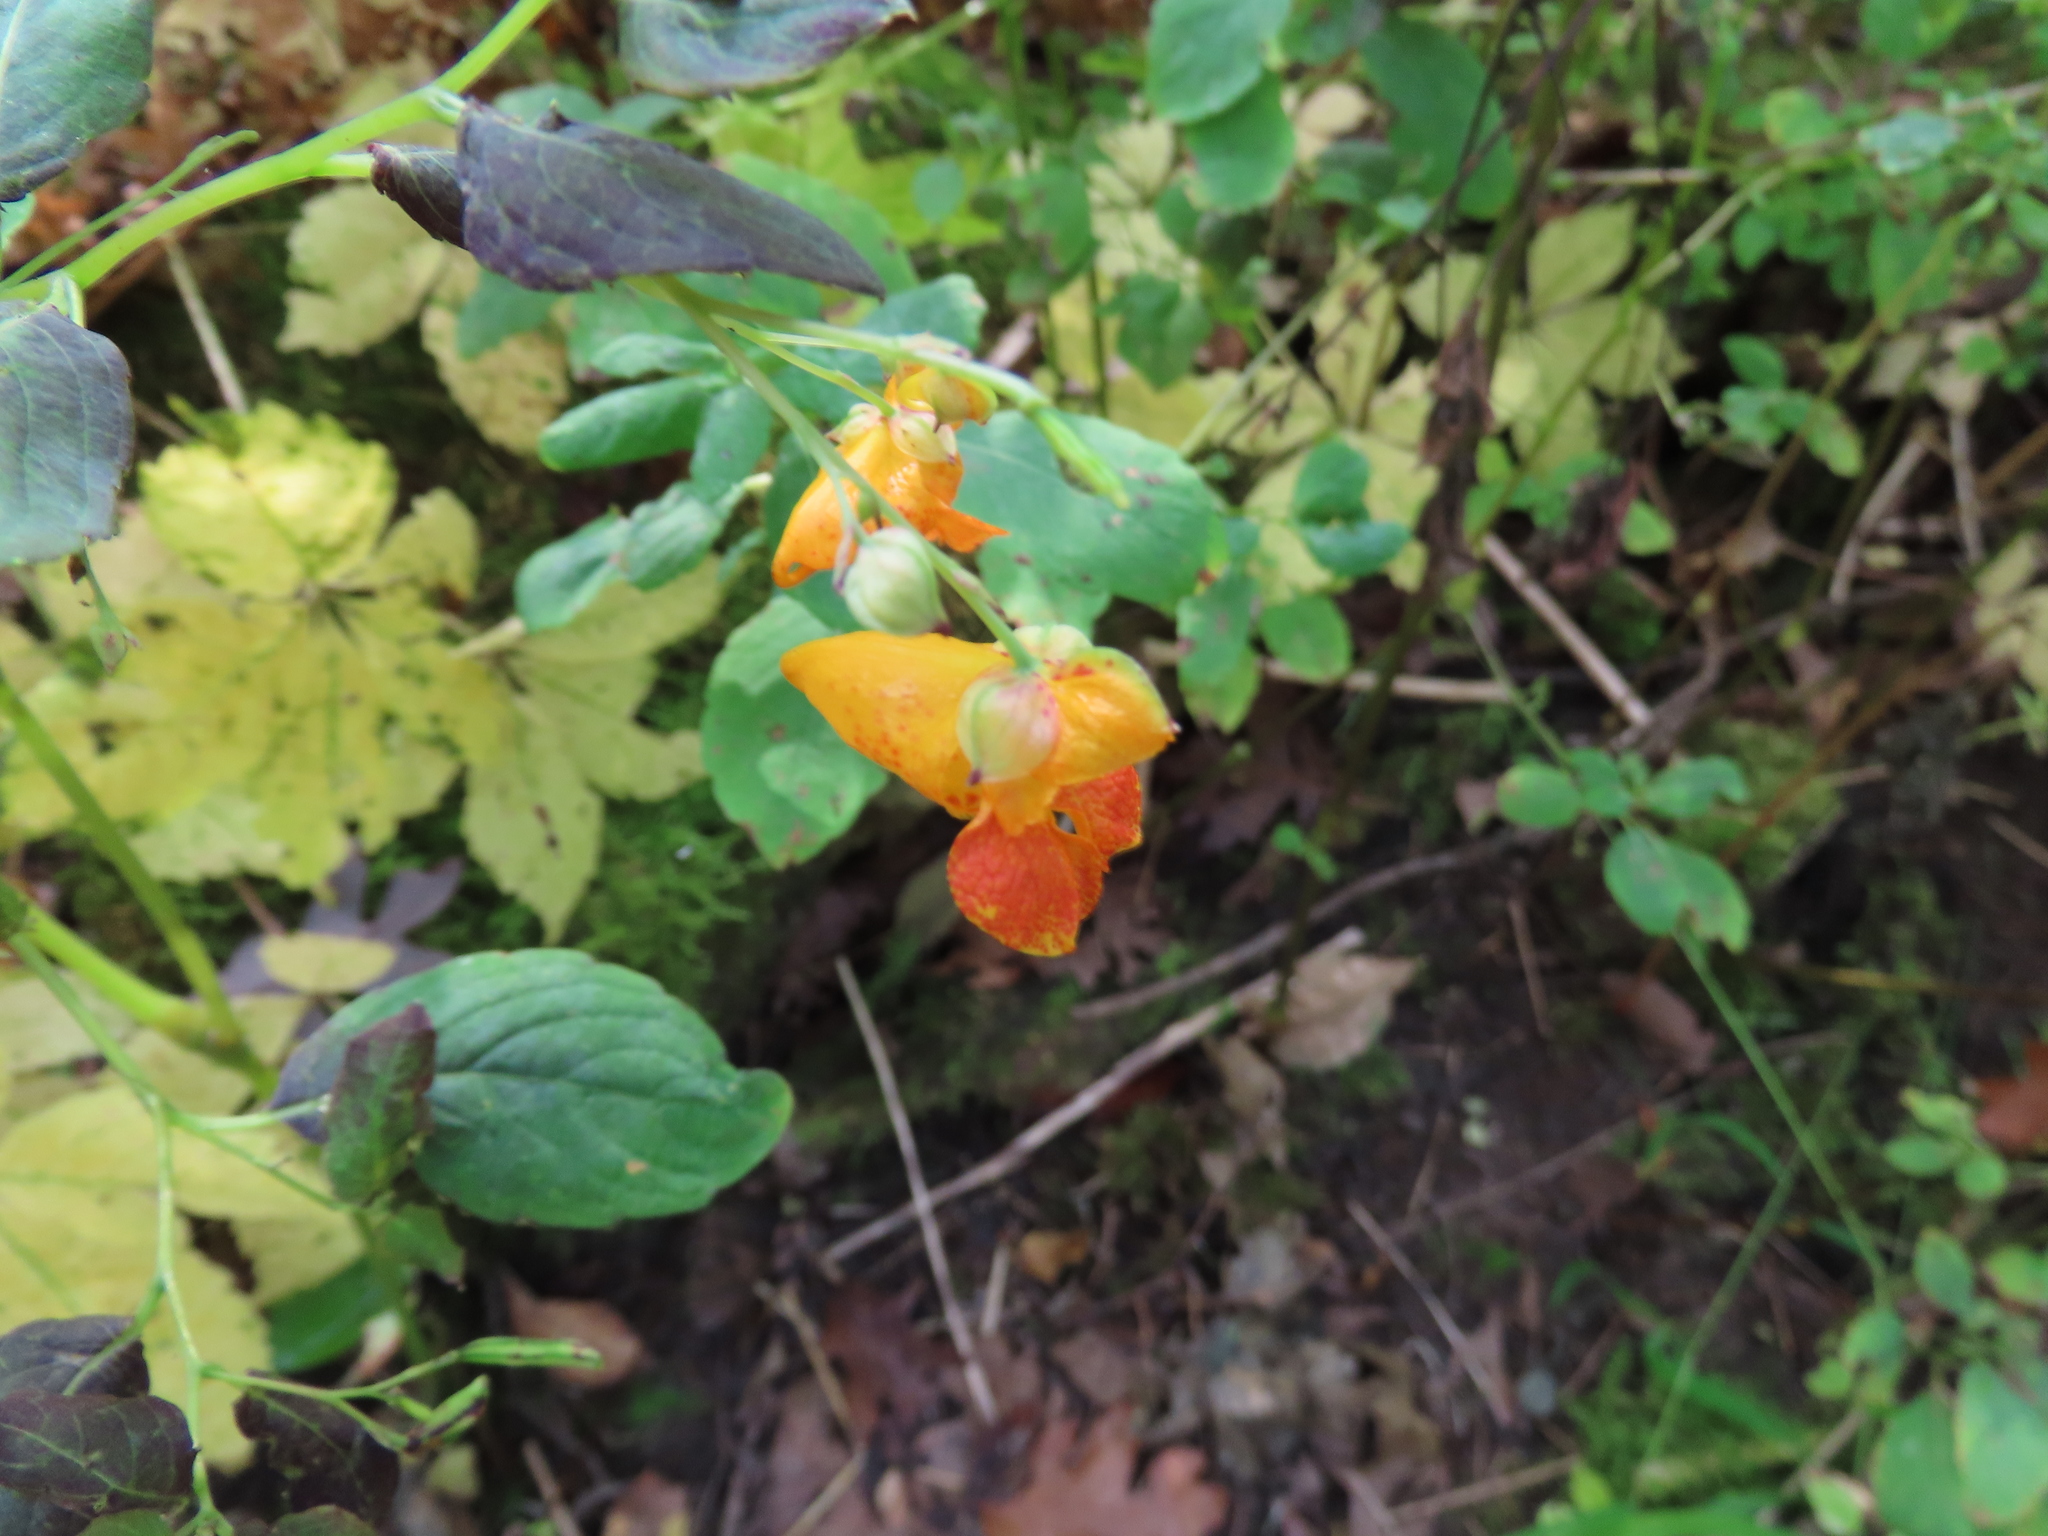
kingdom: Plantae
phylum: Tracheophyta
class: Magnoliopsida
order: Ericales
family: Balsaminaceae
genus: Impatiens
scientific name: Impatiens capensis
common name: Orange balsam
